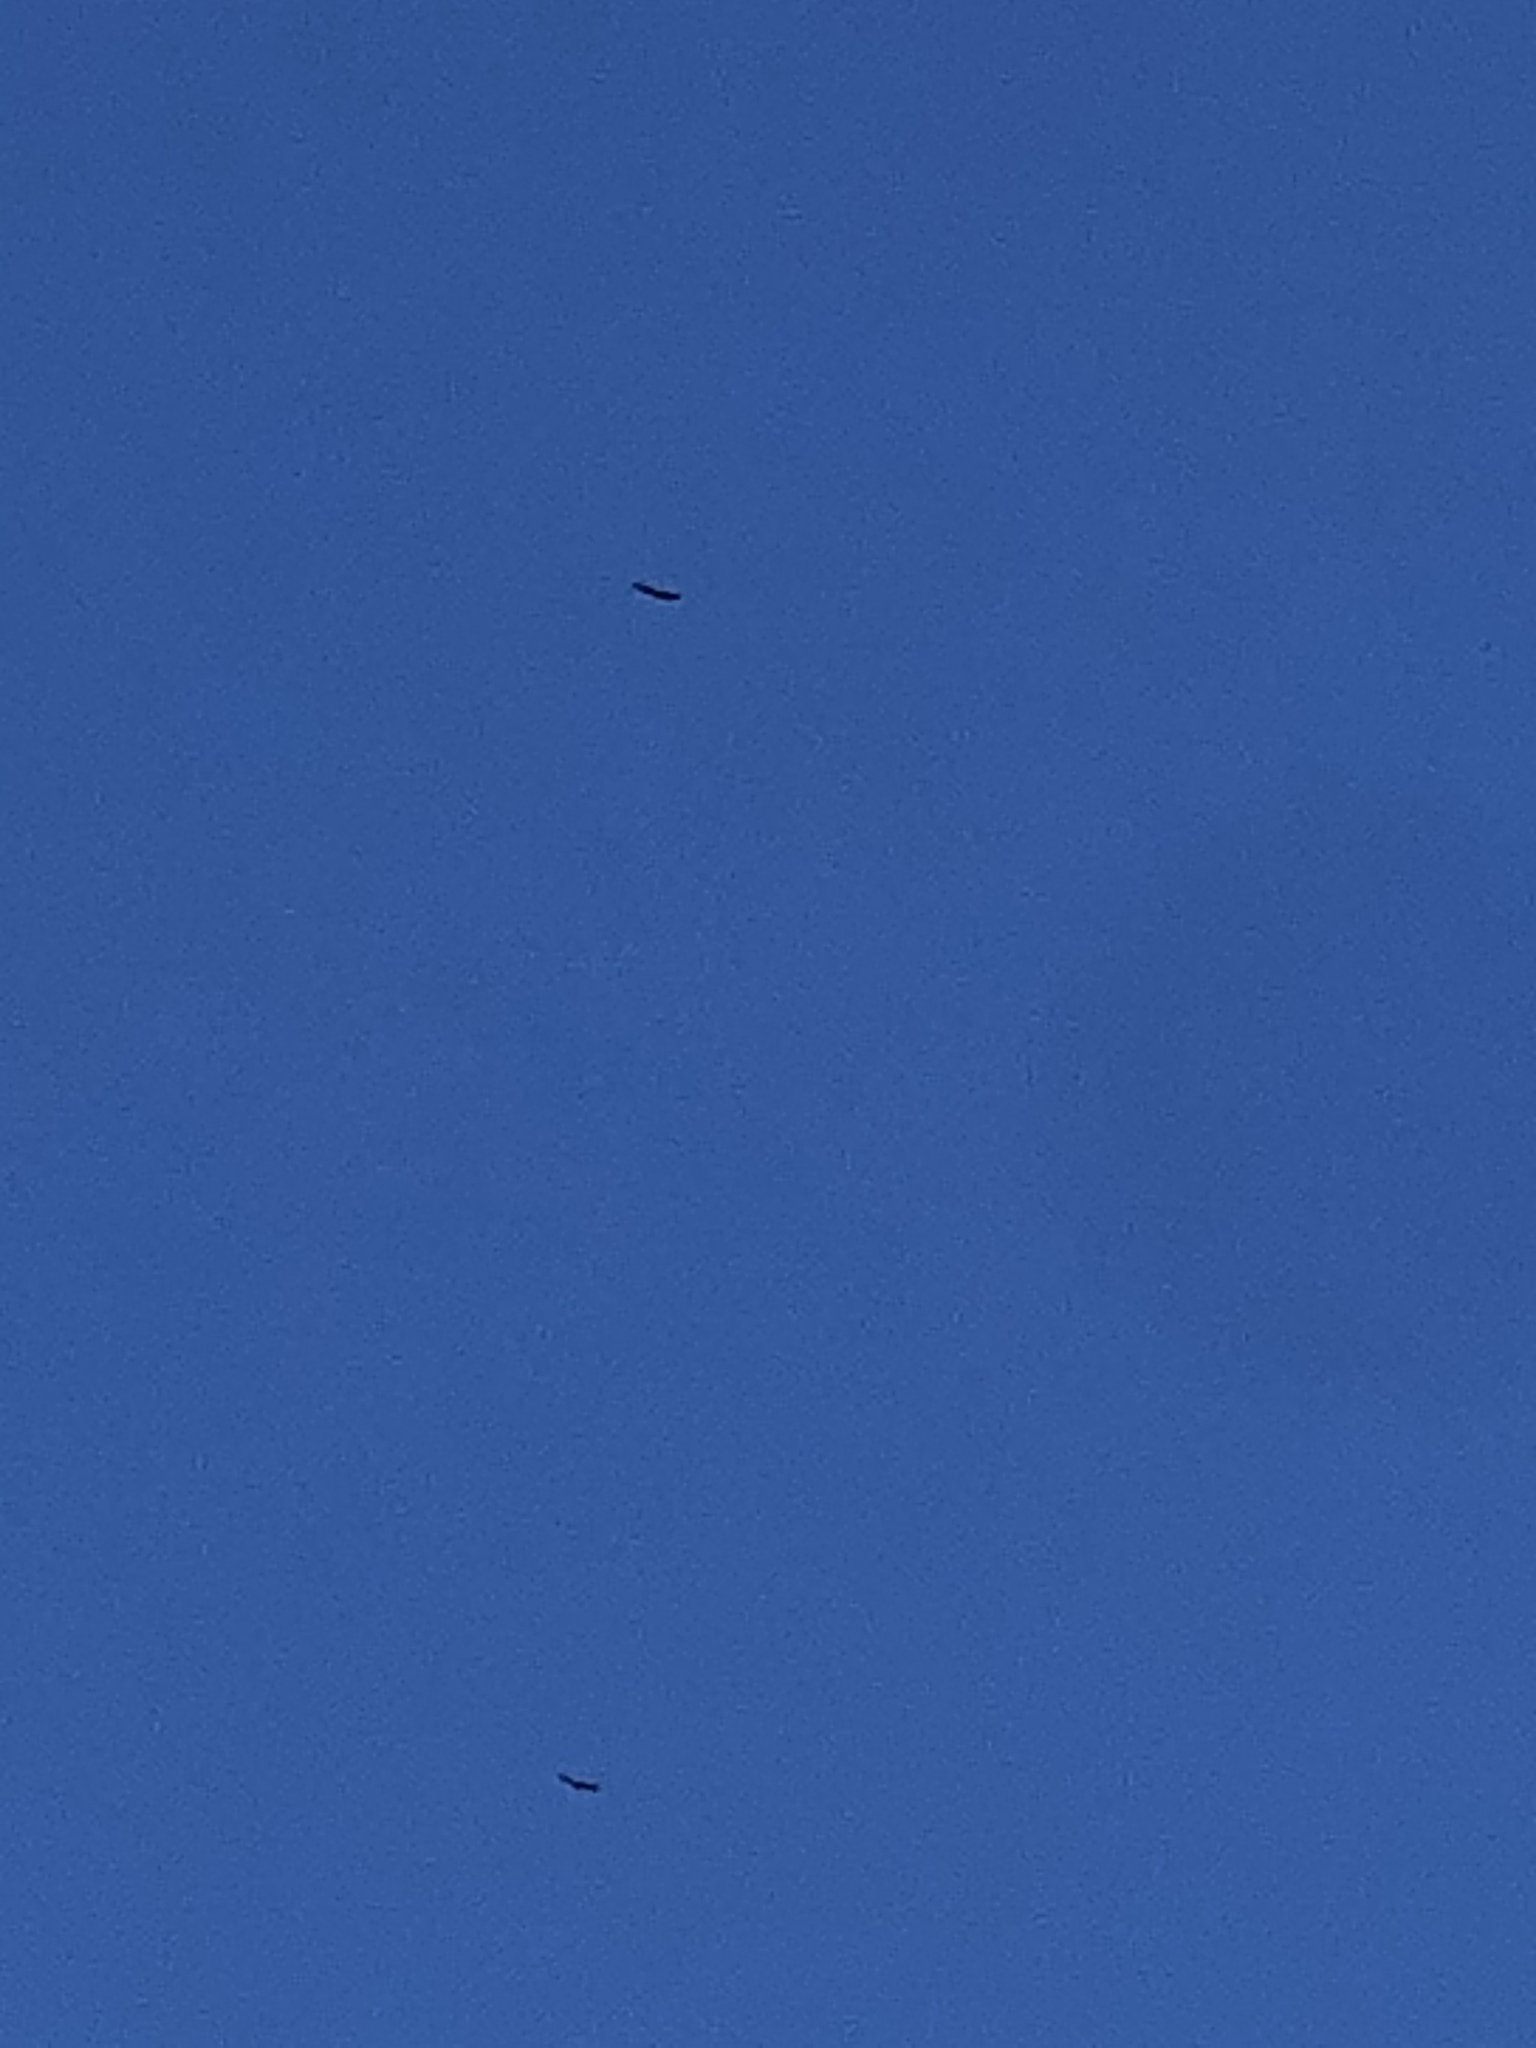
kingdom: Animalia
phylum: Chordata
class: Aves
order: Accipitriformes
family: Accipitridae
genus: Haliaeetus
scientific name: Haliaeetus leucocephalus
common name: Bald eagle
